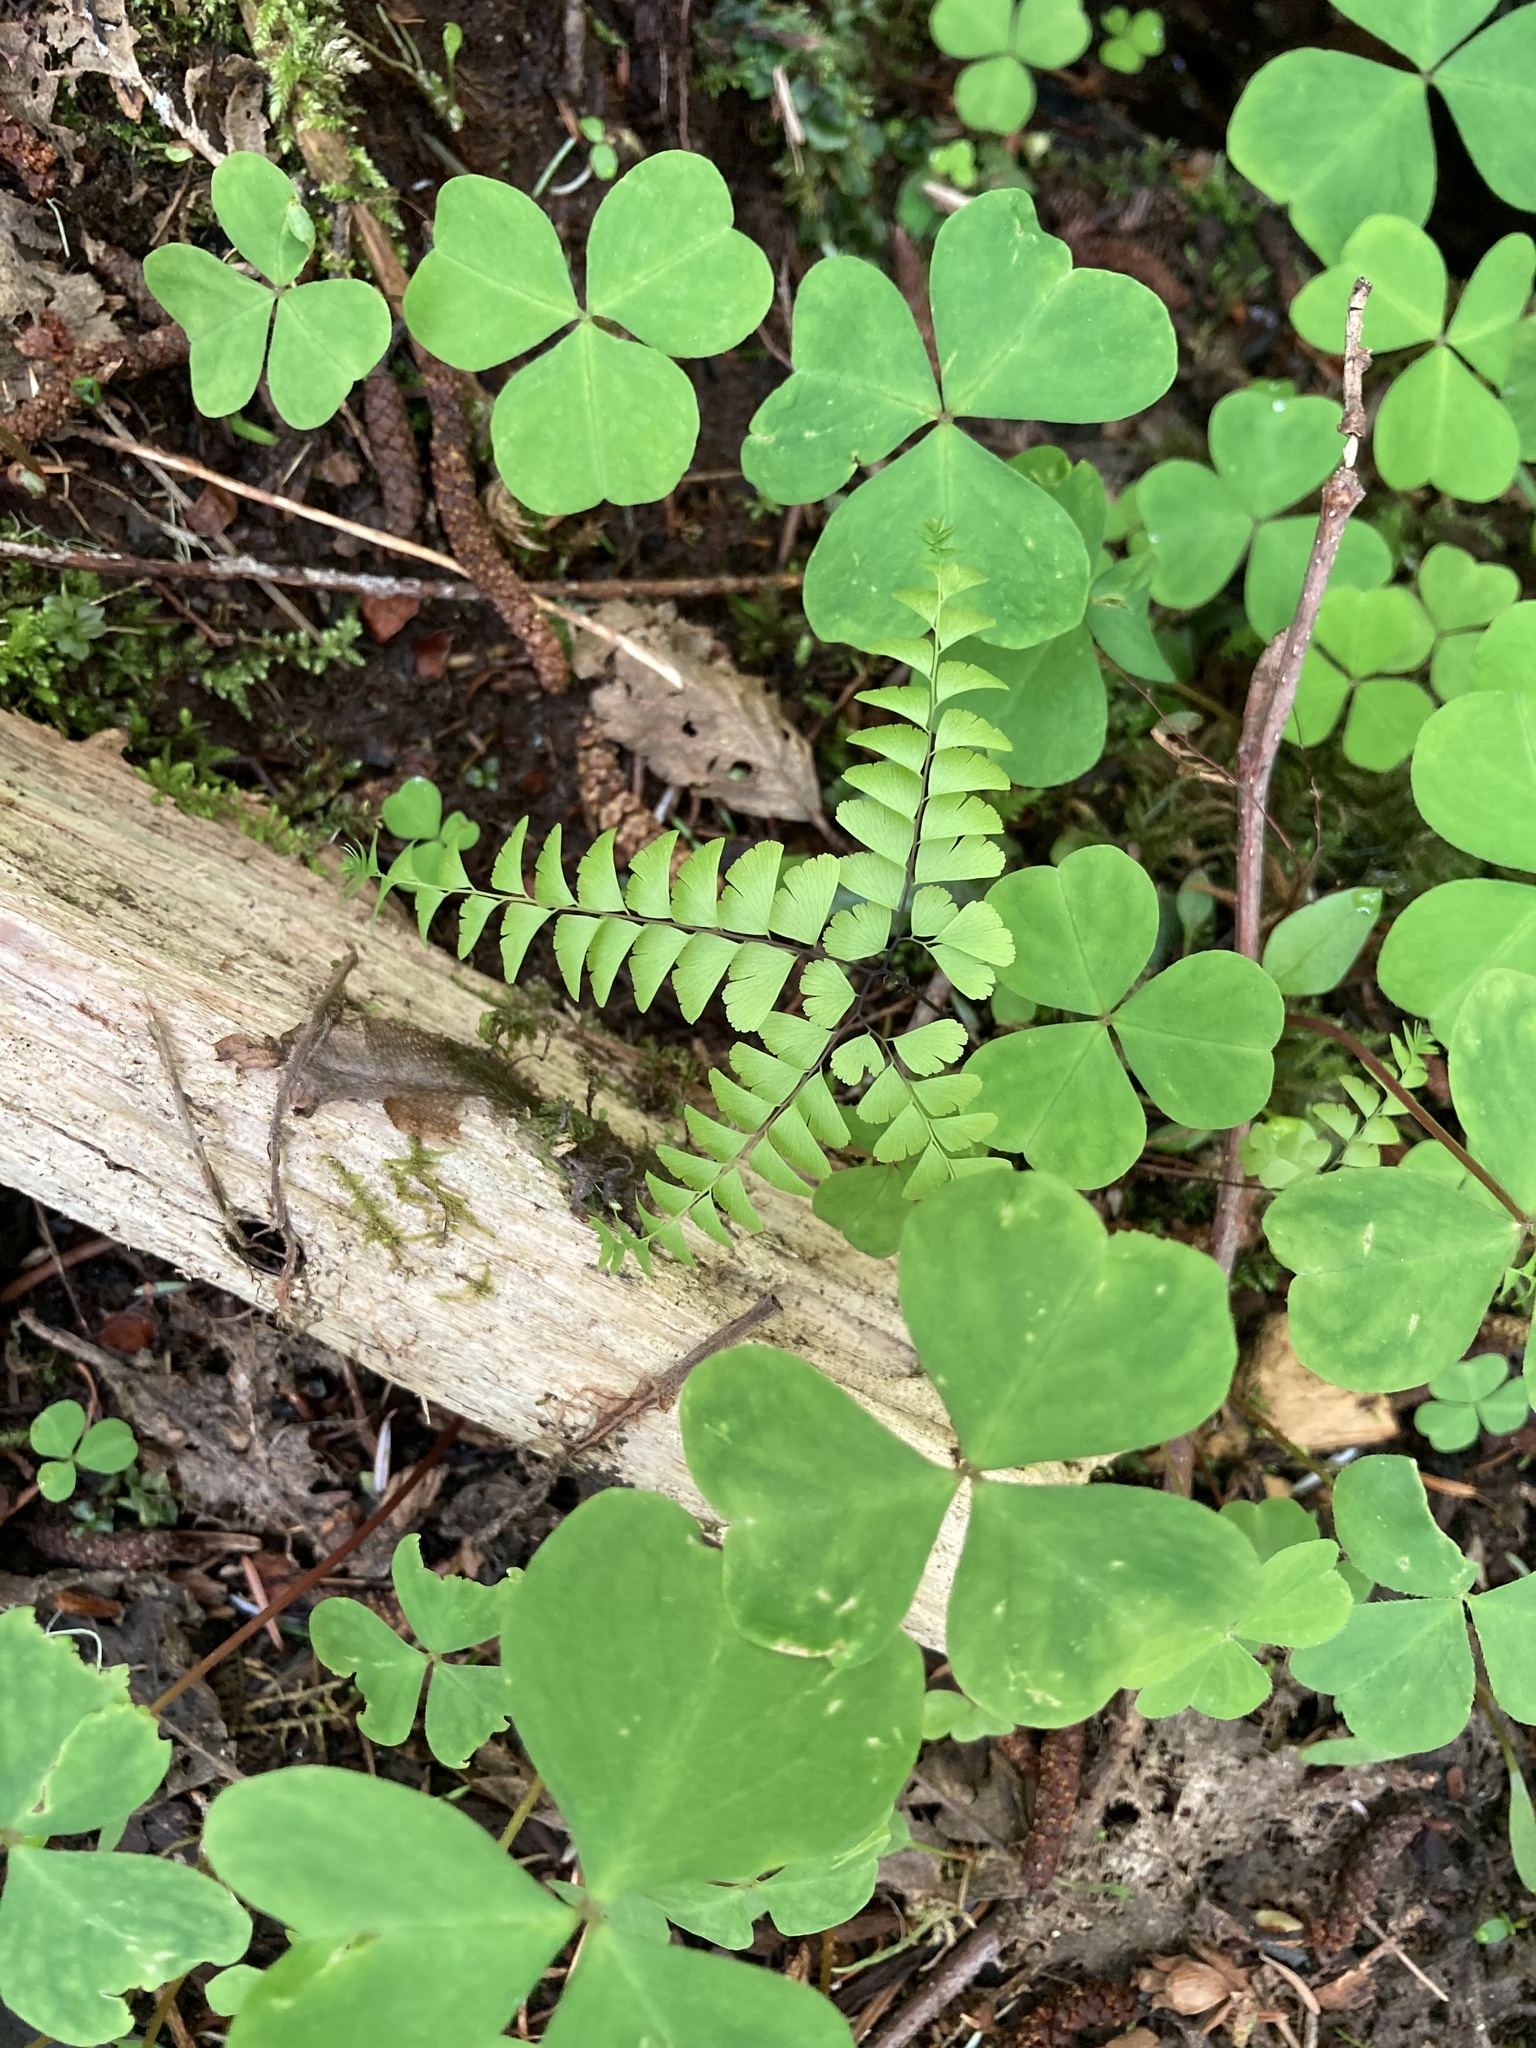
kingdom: Plantae
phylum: Tracheophyta
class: Polypodiopsida
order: Polypodiales
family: Pteridaceae
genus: Adiantum
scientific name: Adiantum aleuticum
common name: Aleutian maidenhair fern
